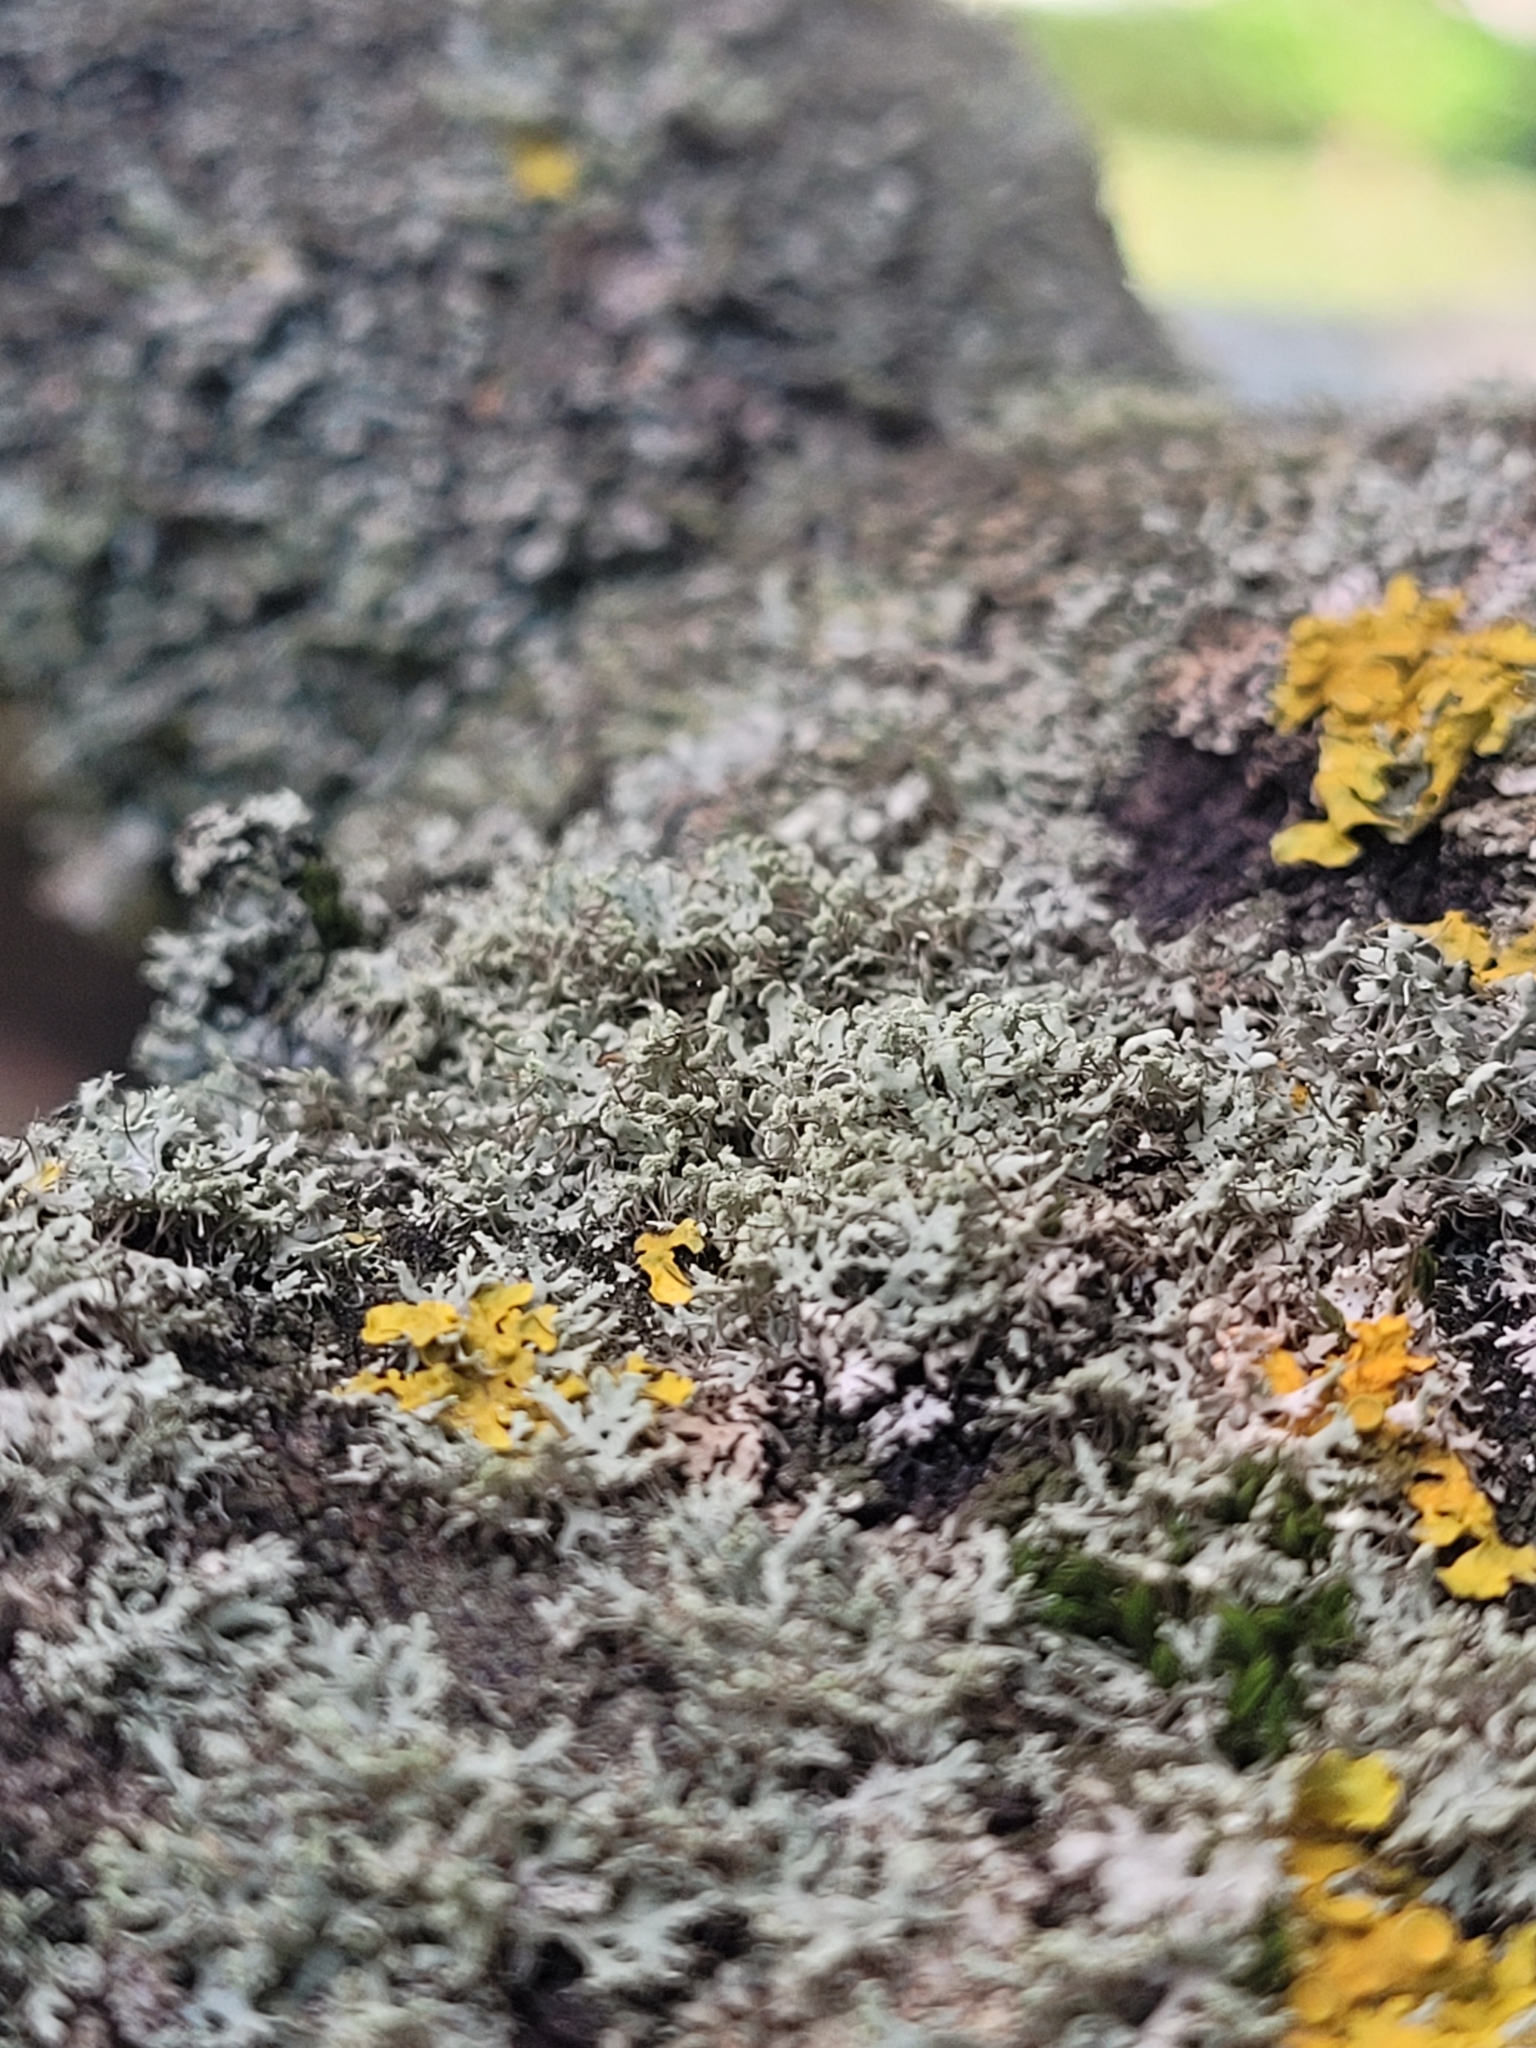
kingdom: Fungi
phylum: Ascomycota
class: Lecanoromycetes
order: Caliciales
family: Physciaceae
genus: Physcia
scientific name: Physcia tenella
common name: Fringed rosette lichen
